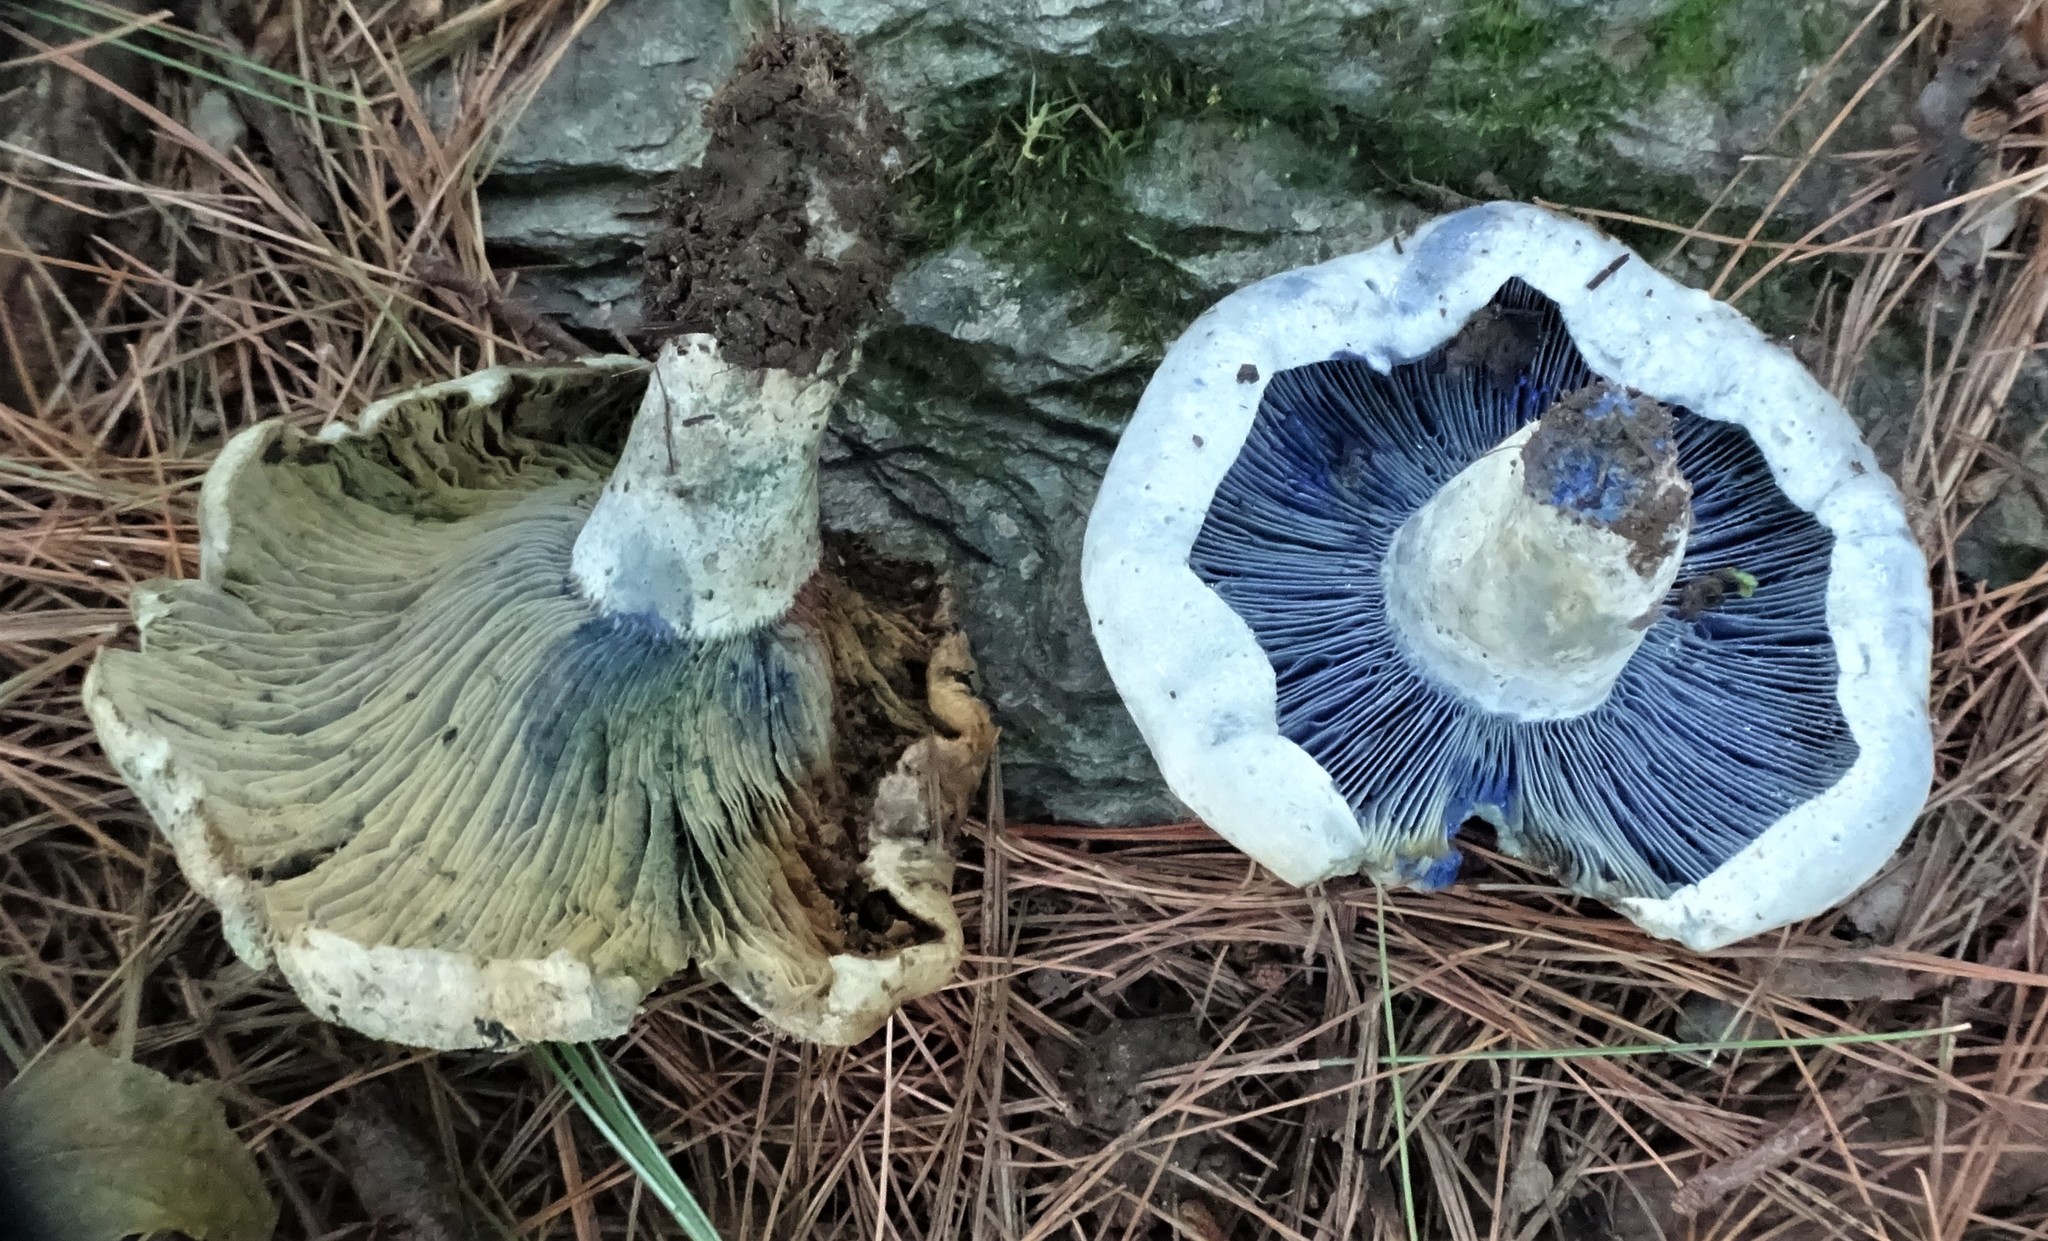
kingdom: Fungi
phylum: Basidiomycota
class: Agaricomycetes
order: Russulales
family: Russulaceae
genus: Lactarius
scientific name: Lactarius indigo
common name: Indigo milk cap
